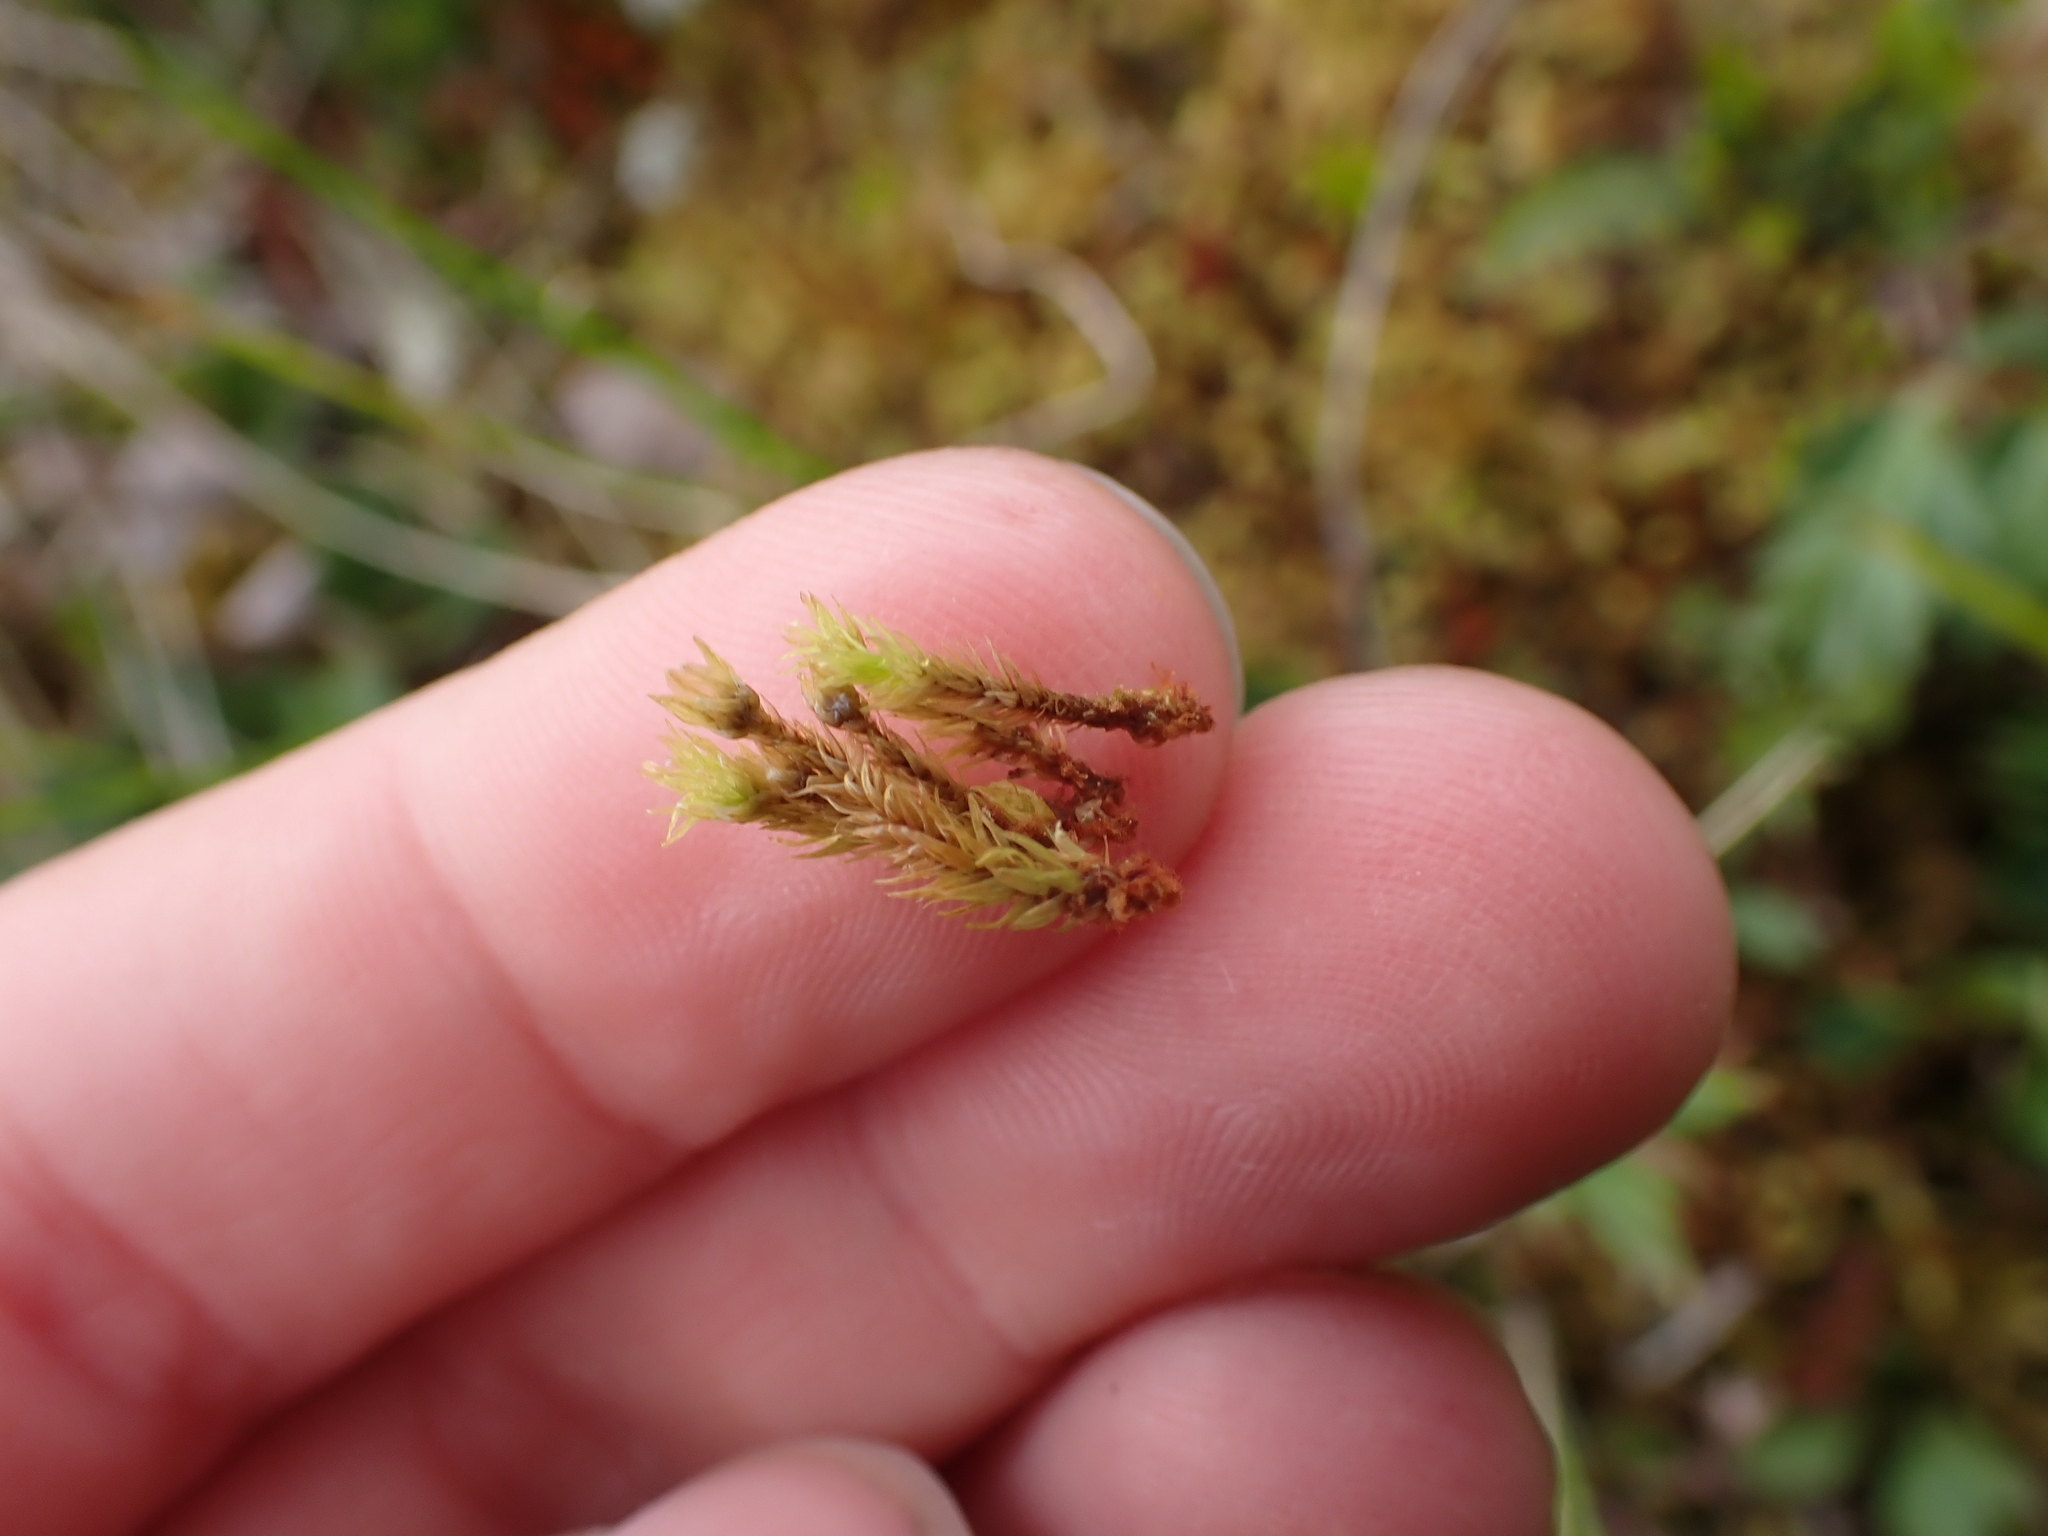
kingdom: Plantae
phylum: Bryophyta
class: Bryopsida
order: Aulacomniales
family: Aulacomniaceae
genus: Aulacomnium
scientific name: Aulacomnium palustre
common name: Bog groove-moss
